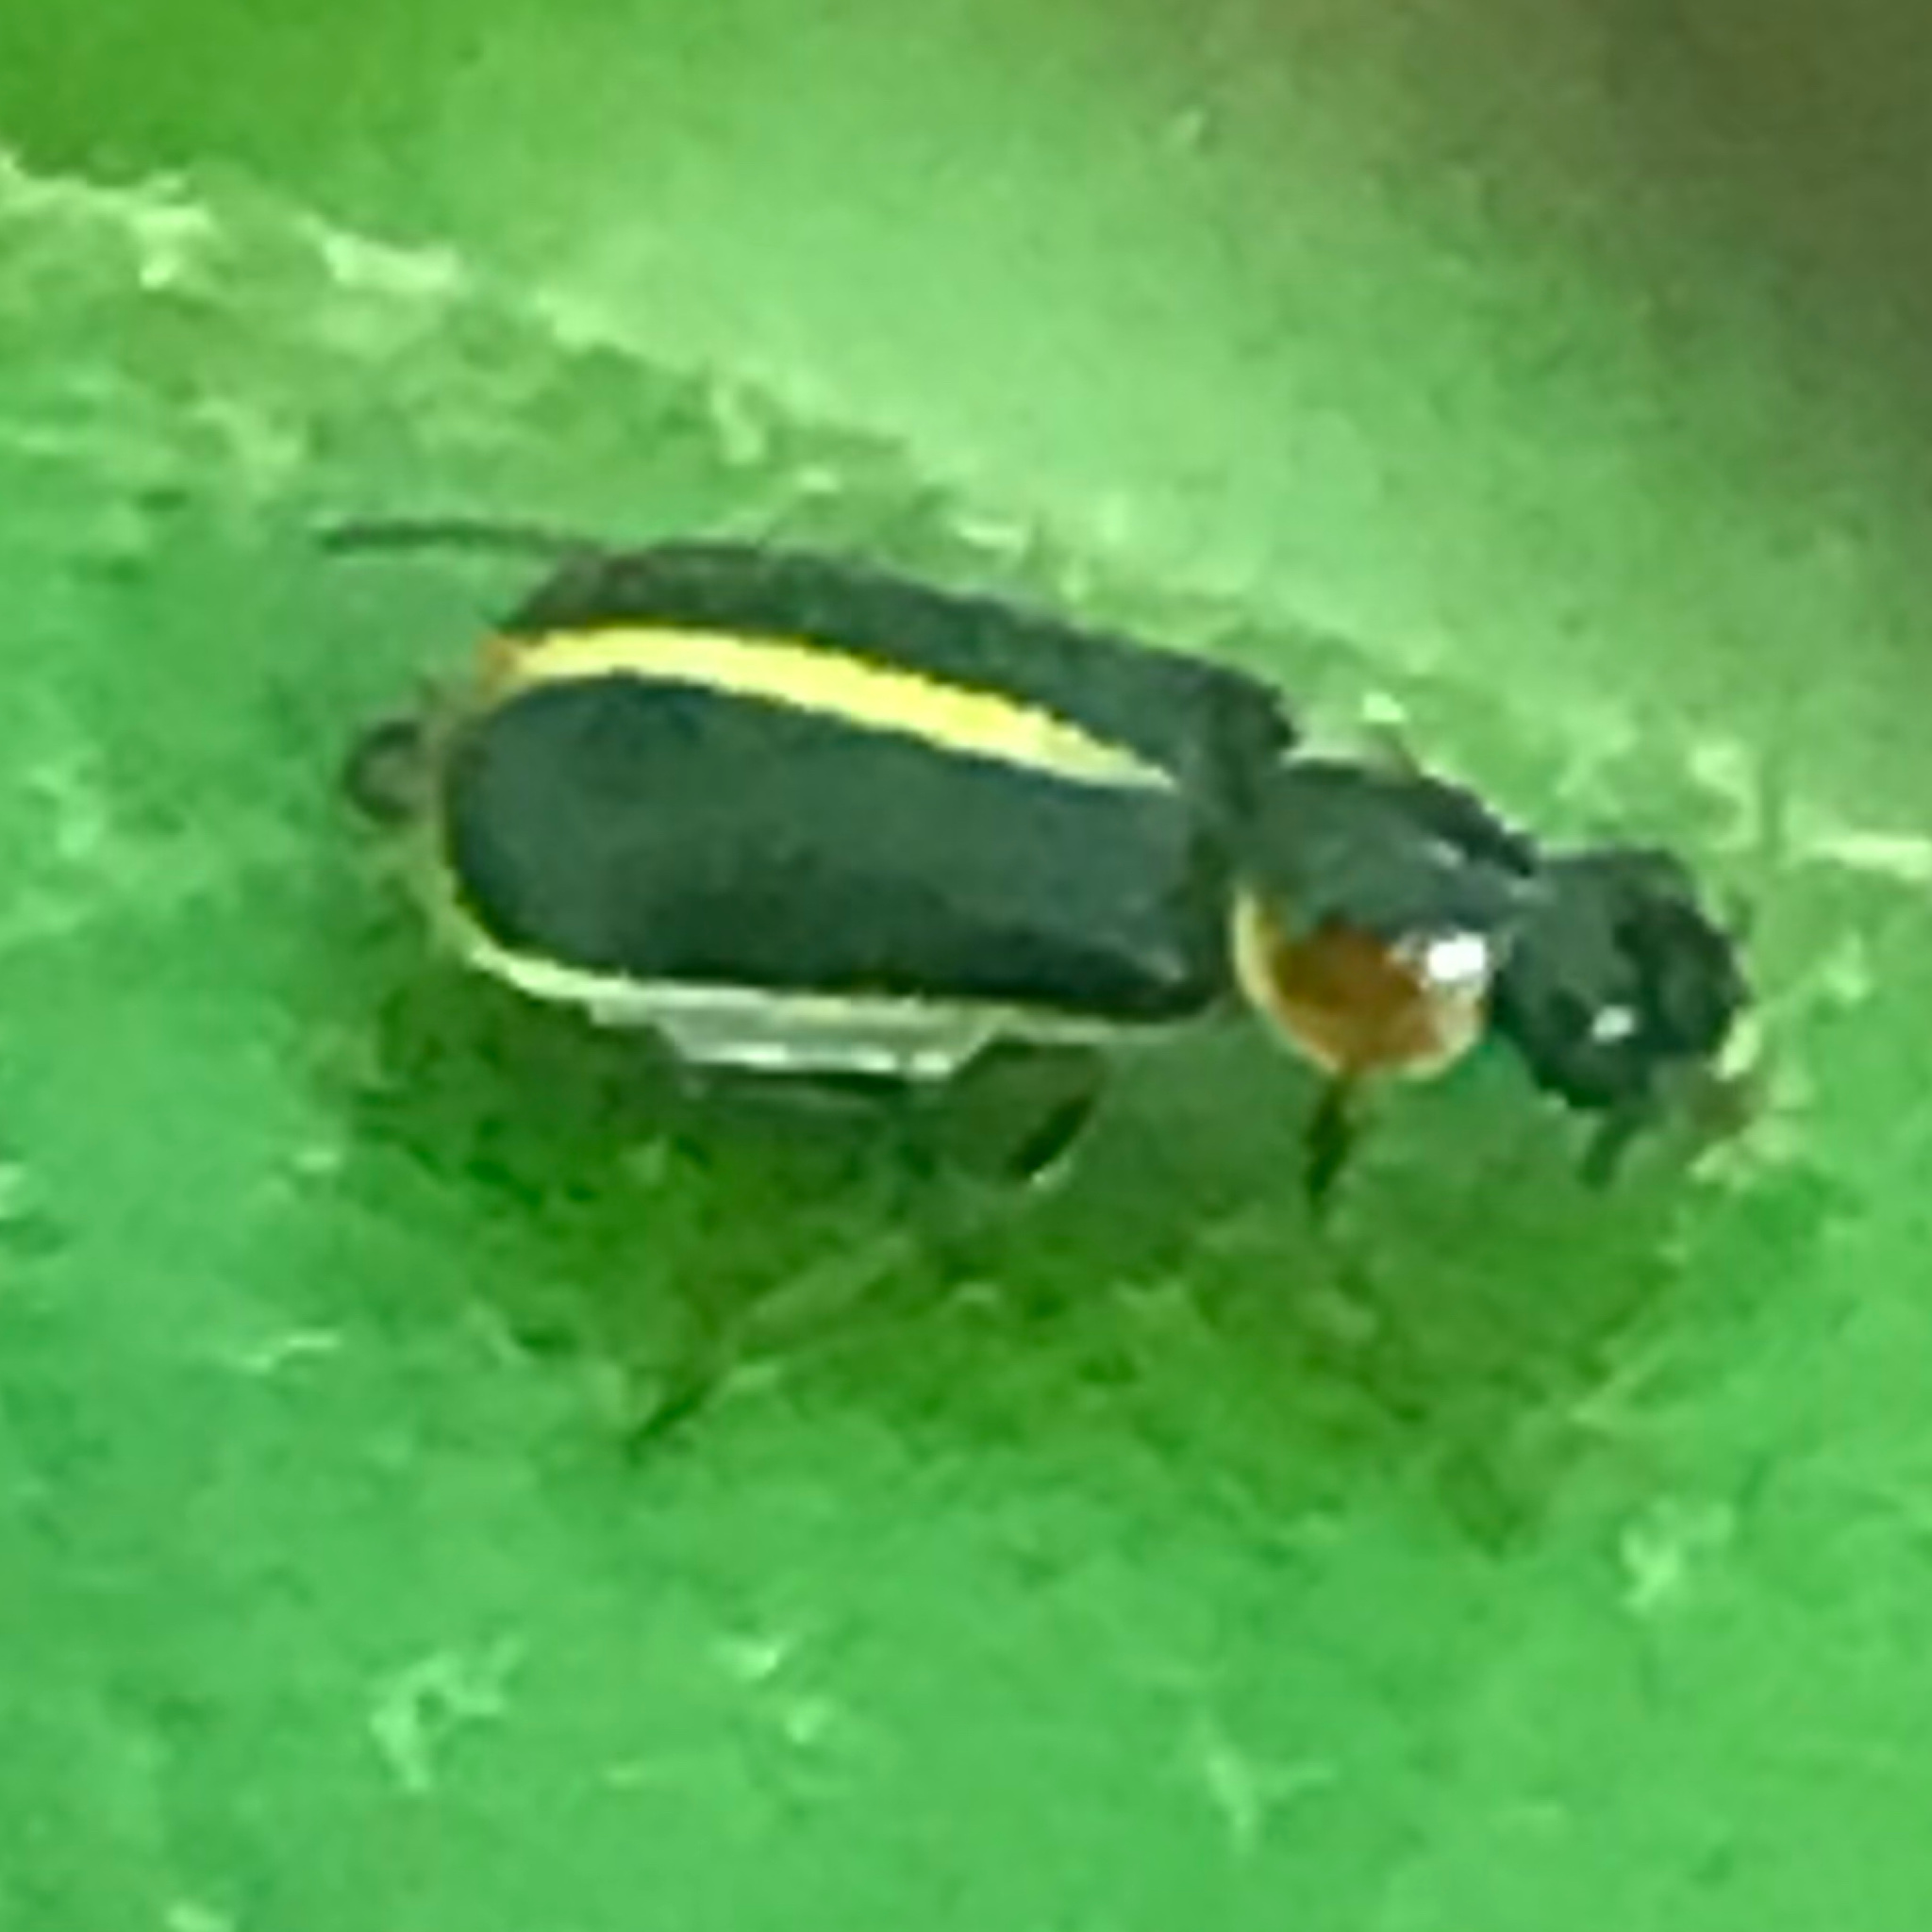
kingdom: Animalia
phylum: Arthropoda
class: Insecta
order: Coleoptera
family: Malachiidae
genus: Attalus
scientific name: Attalus
